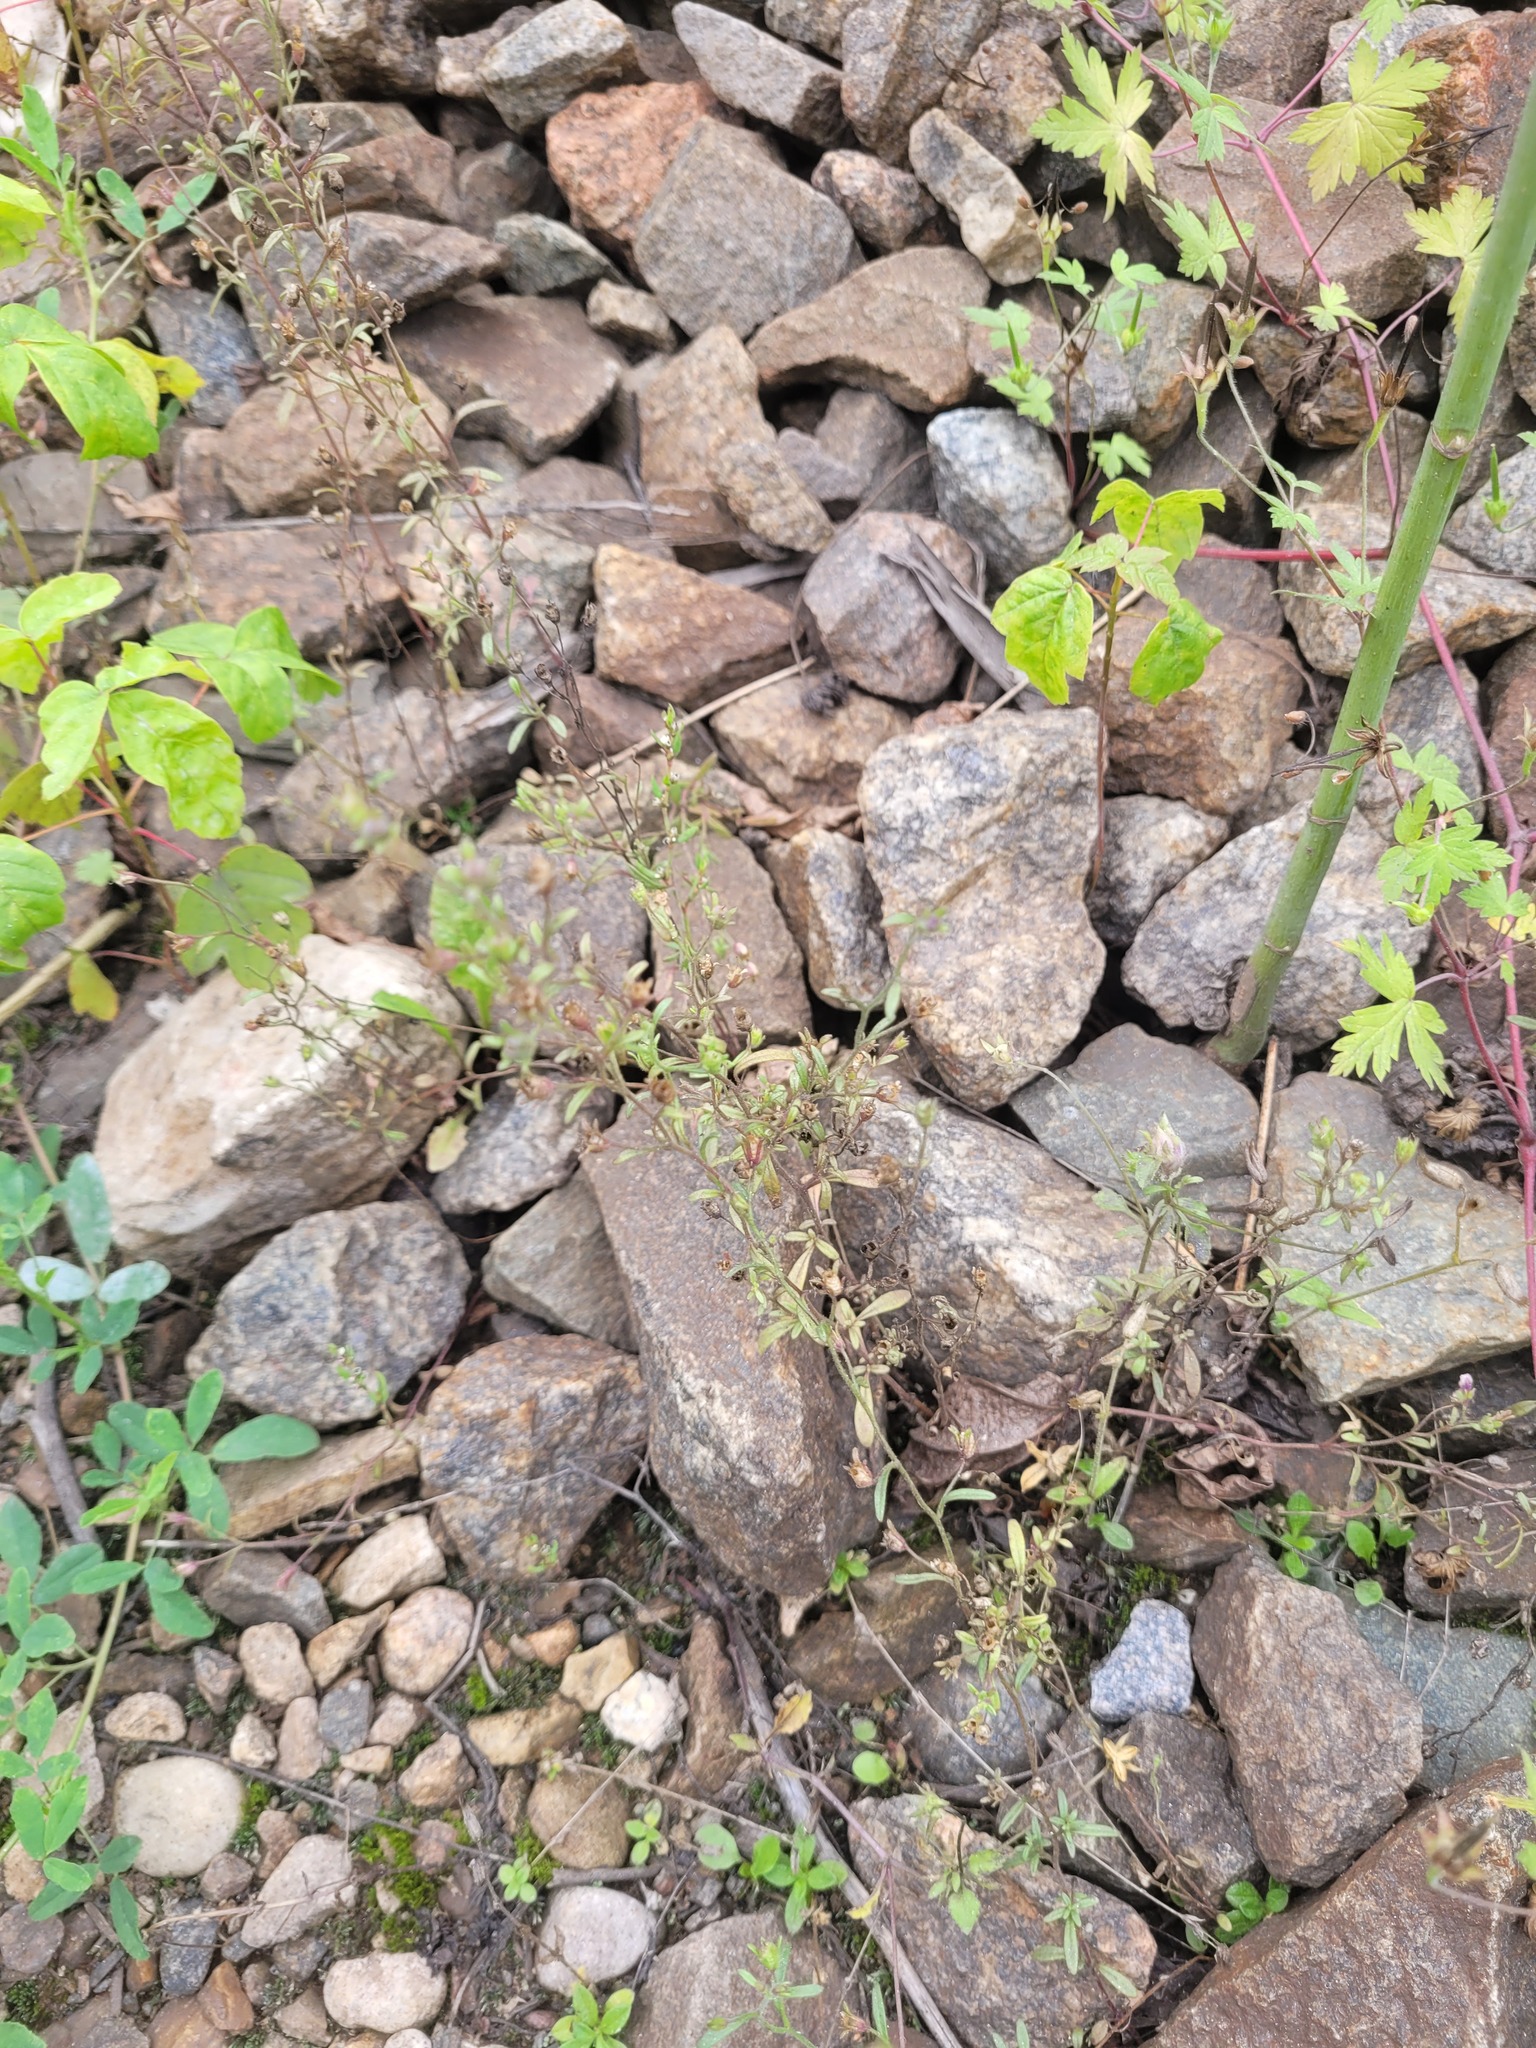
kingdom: Plantae
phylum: Tracheophyta
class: Magnoliopsida
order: Lamiales
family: Plantaginaceae
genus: Chaenorhinum
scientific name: Chaenorhinum minus
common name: Dwarf snapdragon
